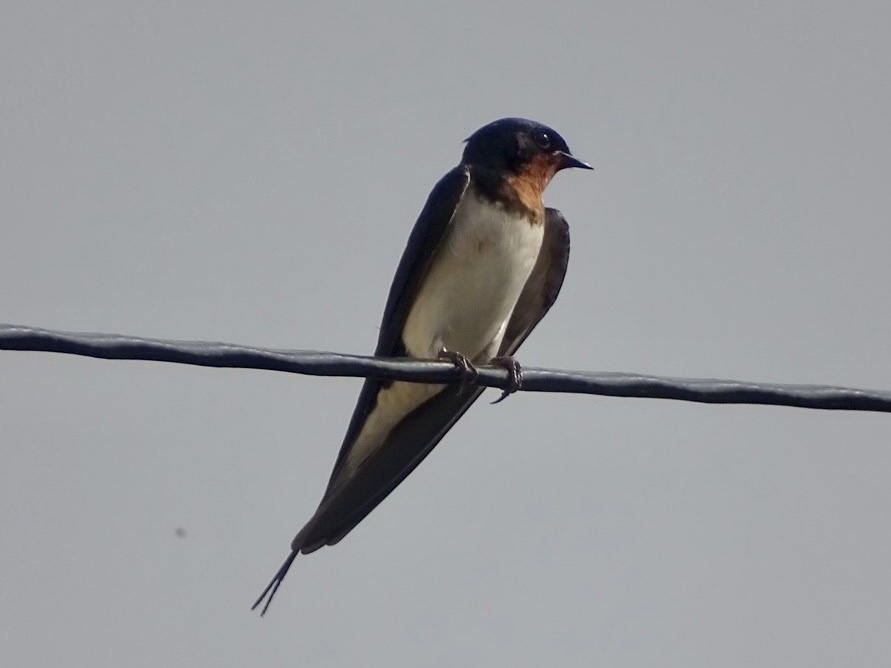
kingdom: Animalia
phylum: Chordata
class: Aves
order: Passeriformes
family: Hirundinidae
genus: Hirundo
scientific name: Hirundo rustica
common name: Barn swallow
